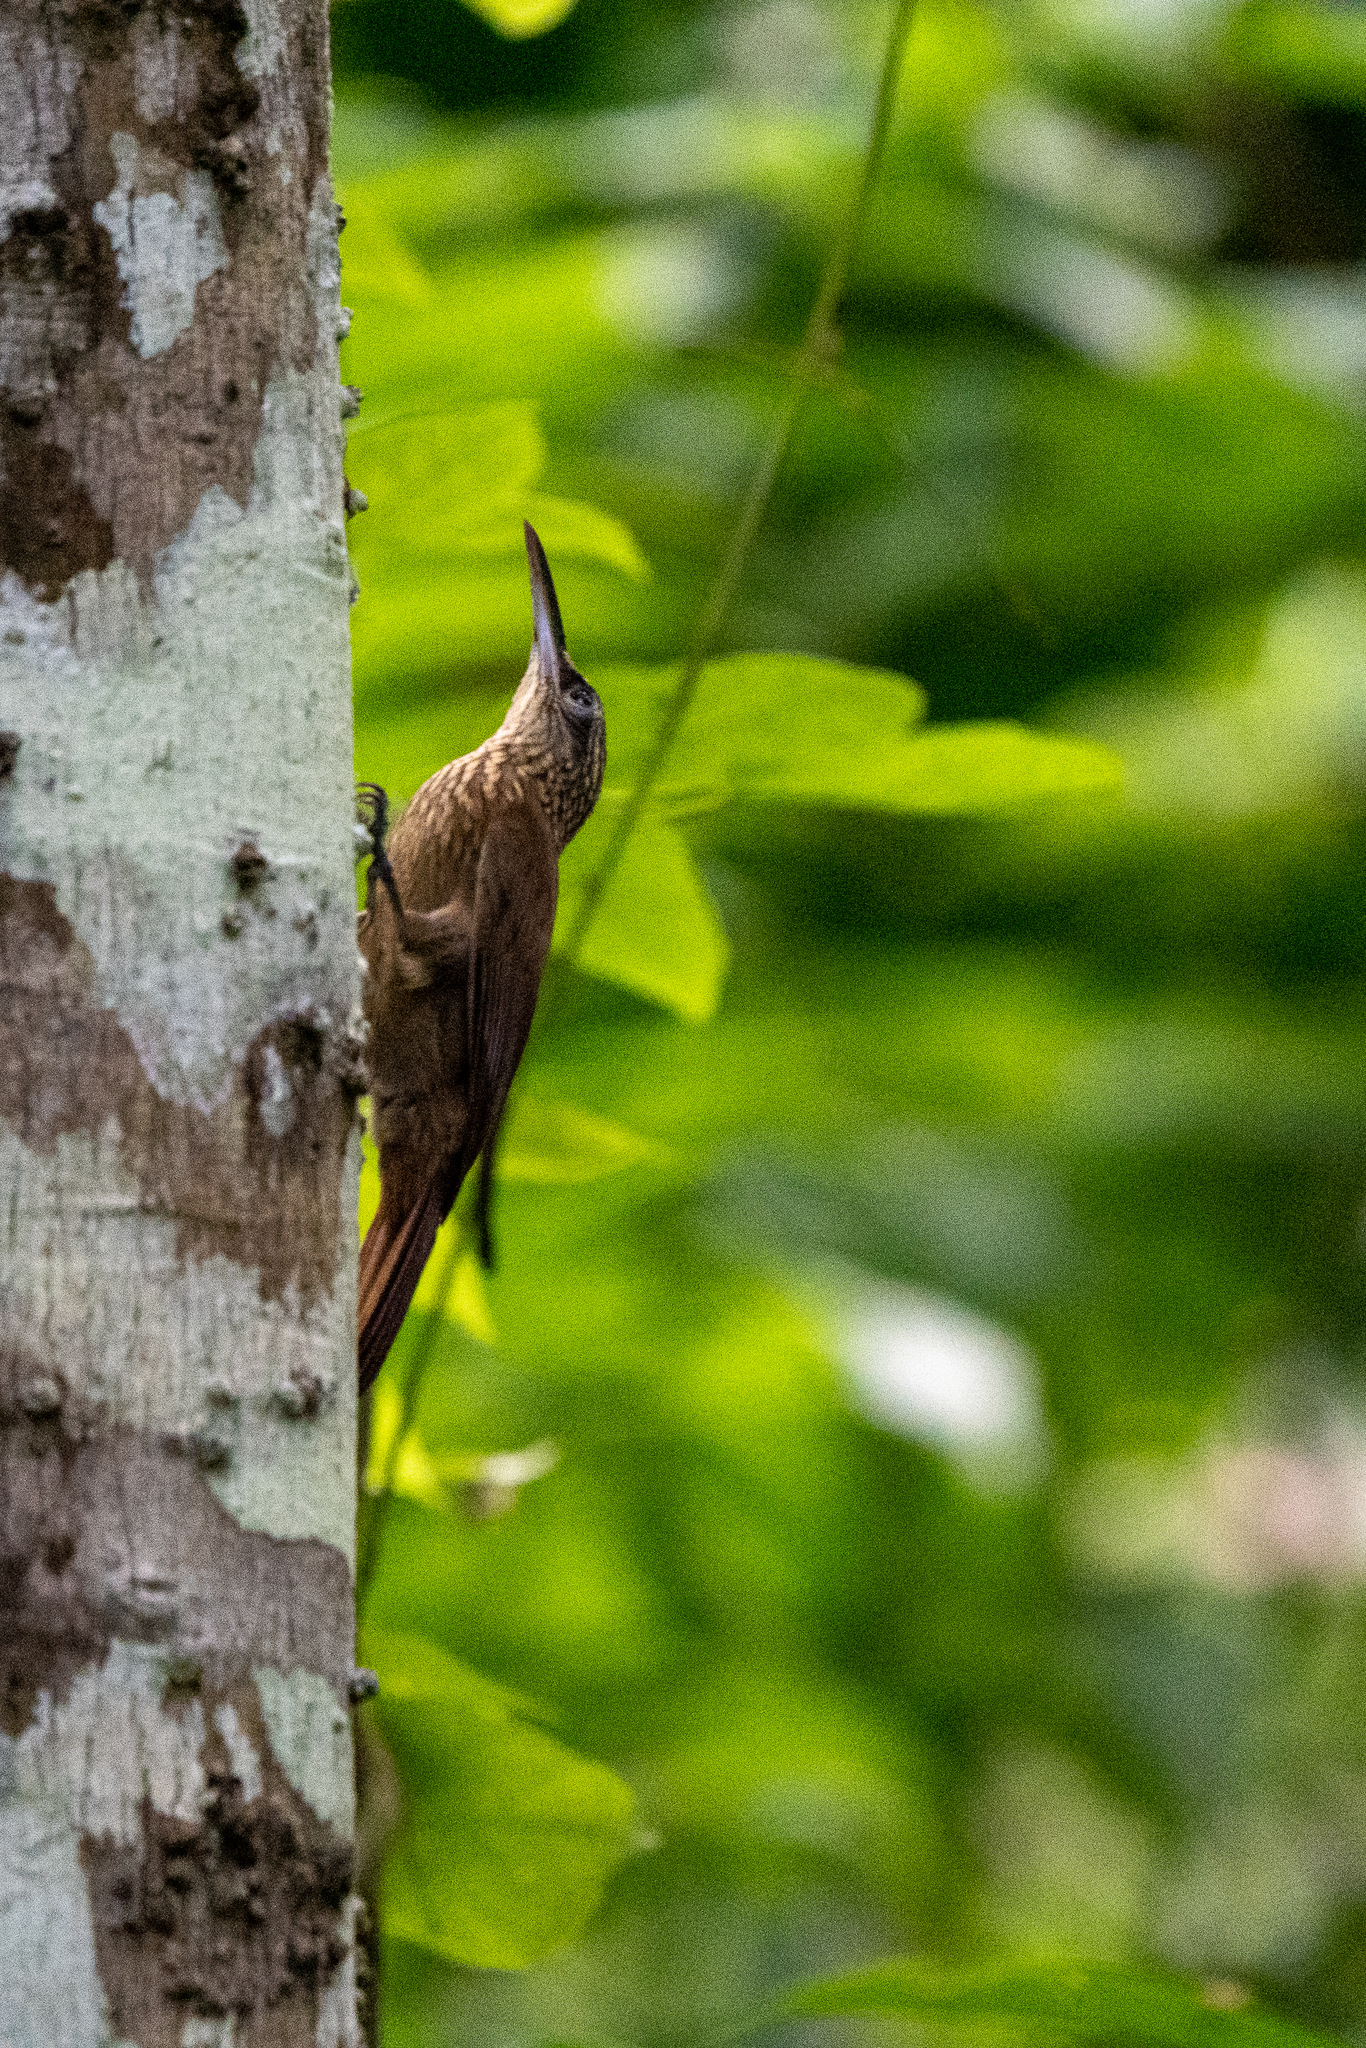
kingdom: Animalia
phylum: Chordata
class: Aves
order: Passeriformes
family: Furnariidae
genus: Xiphorhynchus
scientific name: Xiphorhynchus susurrans
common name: Cocoa woodcreeper
